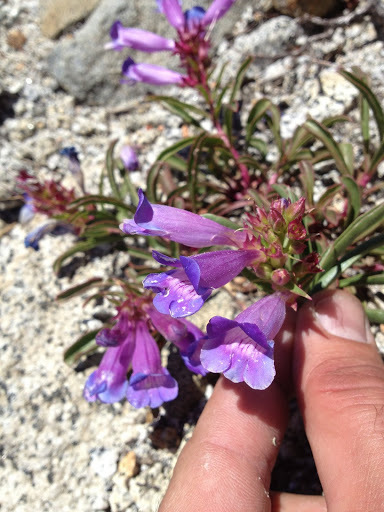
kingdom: Plantae
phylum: Tracheophyta
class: Magnoliopsida
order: Lamiales
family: Plantaginaceae
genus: Penstemon
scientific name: Penstemon speciosus
